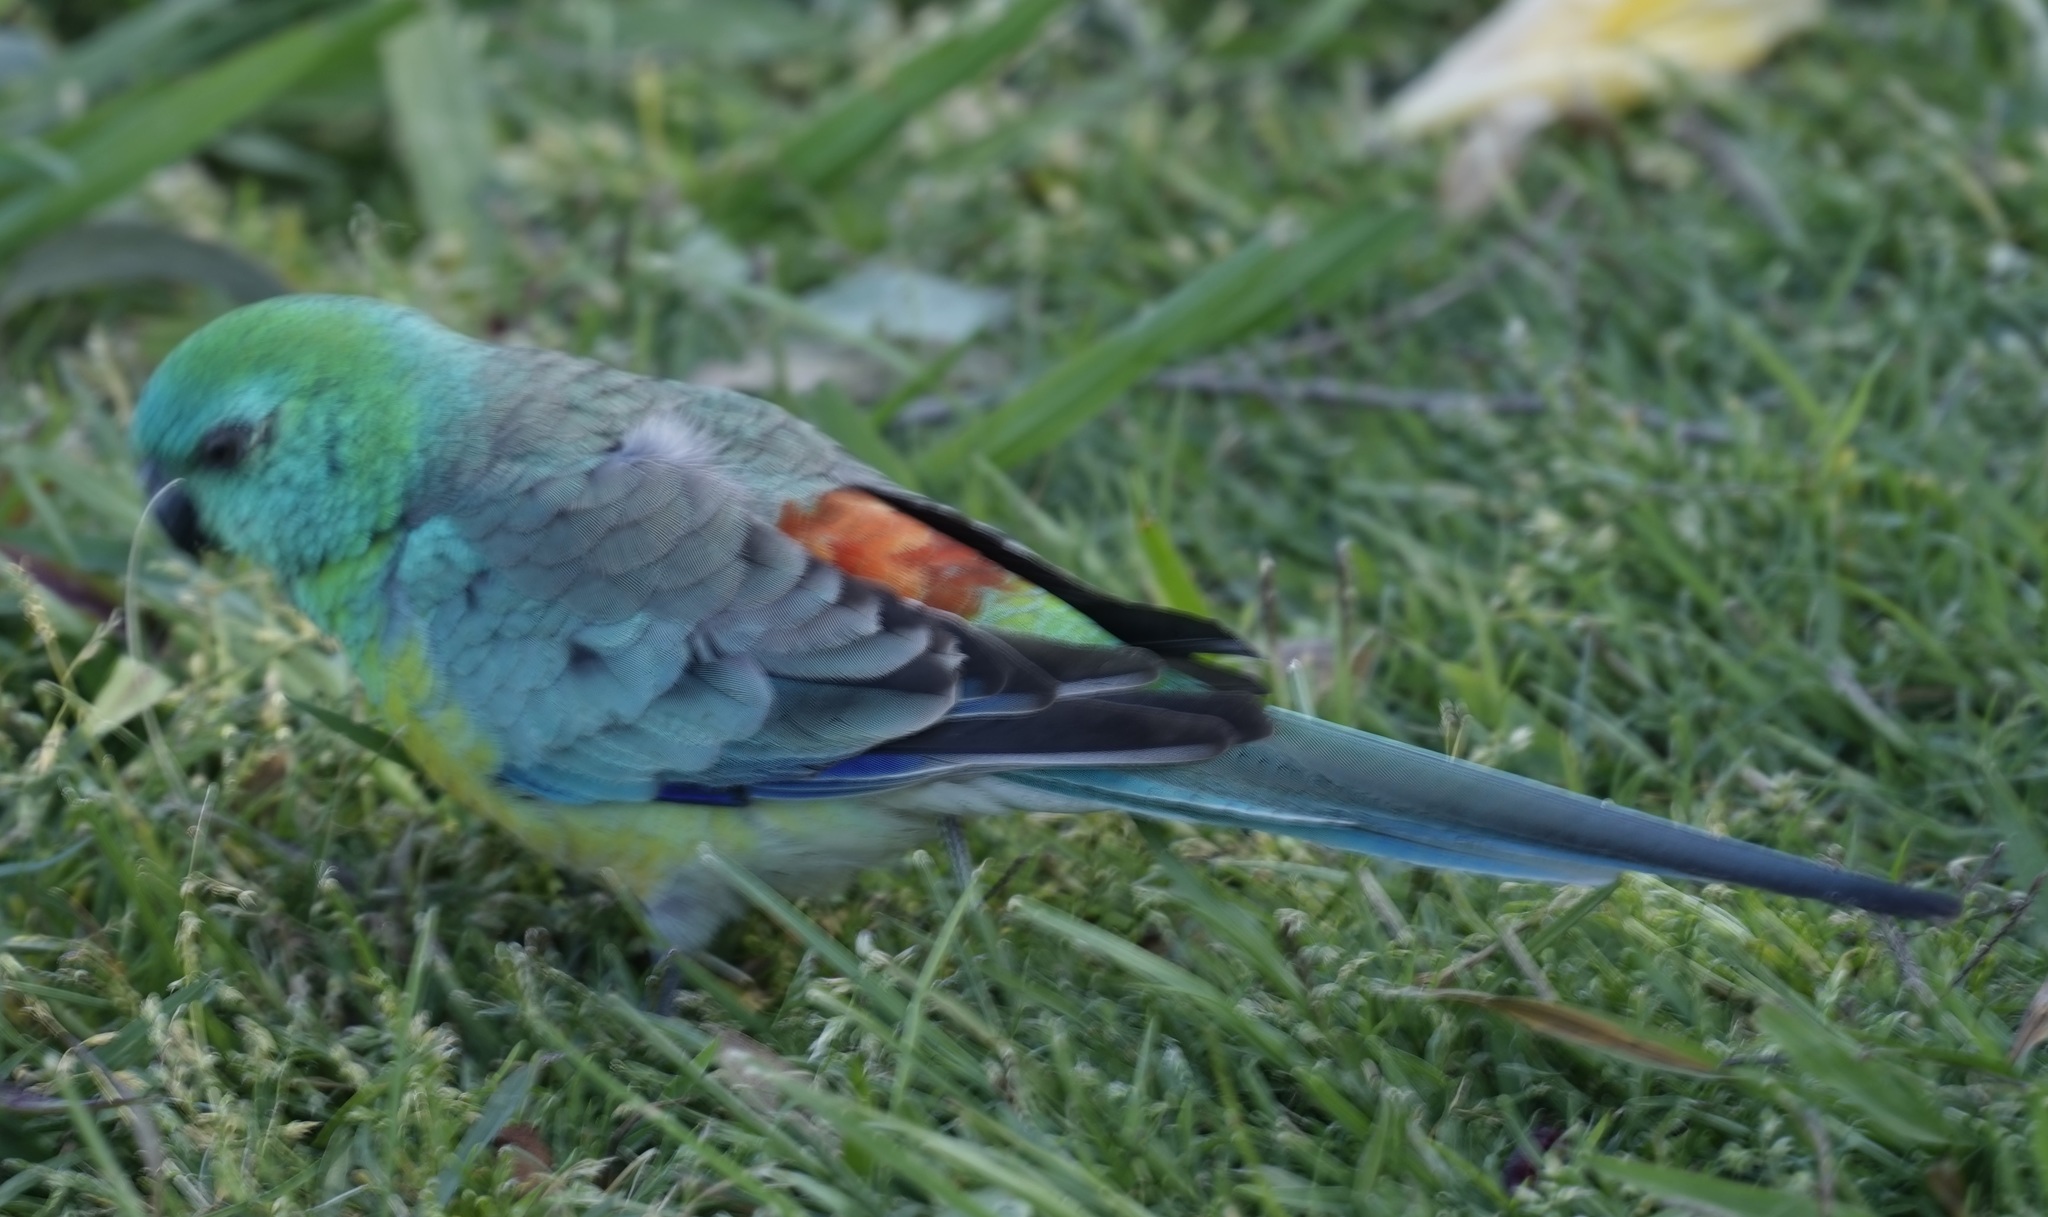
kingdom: Animalia
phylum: Chordata
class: Aves
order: Psittaciformes
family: Psittacidae
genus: Psephotus
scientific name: Psephotus haematonotus
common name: Red-rumped parrot
